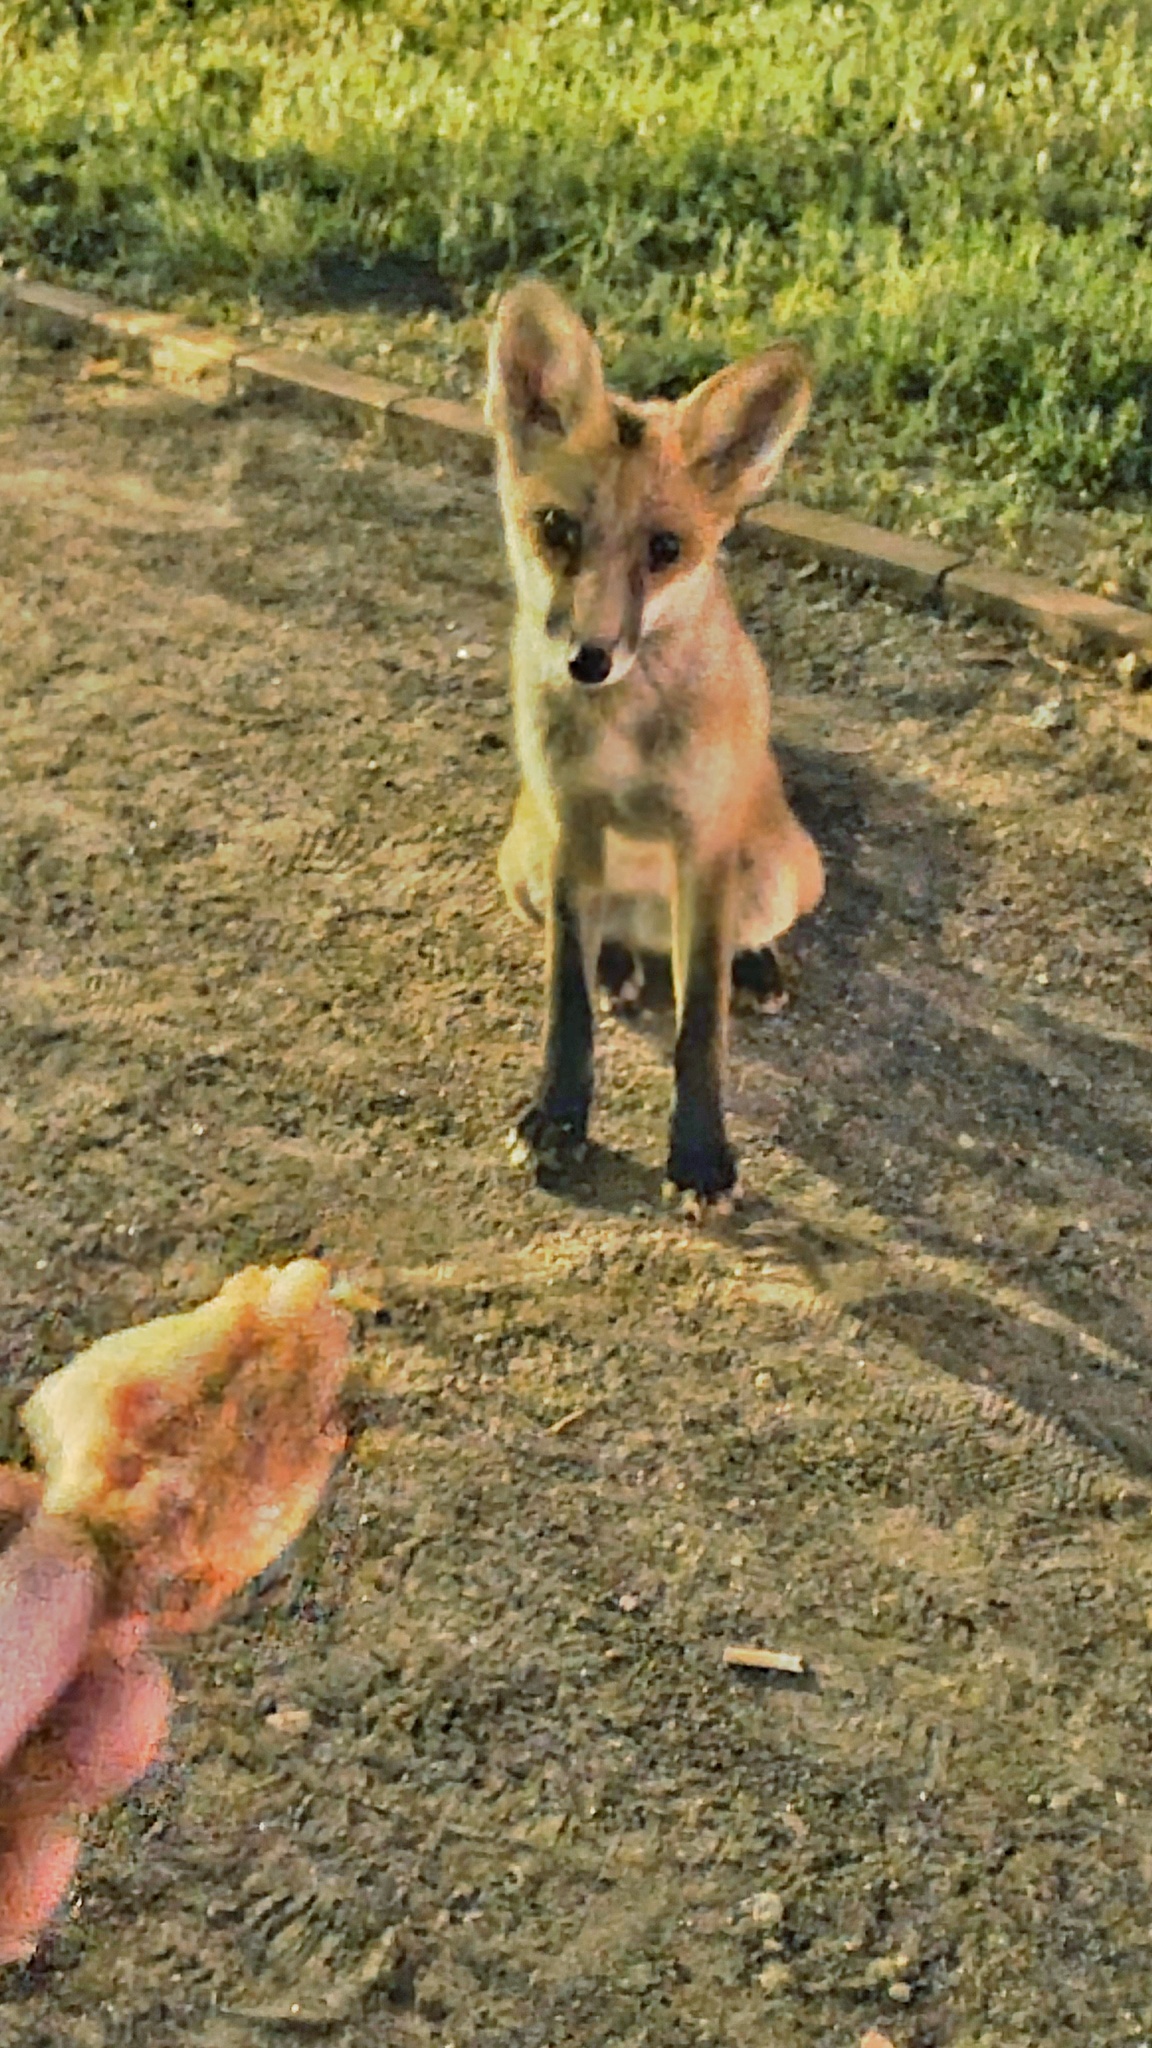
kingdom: Animalia
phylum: Chordata
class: Mammalia
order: Carnivora
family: Canidae
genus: Vulpes
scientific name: Vulpes vulpes
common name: Red fox
